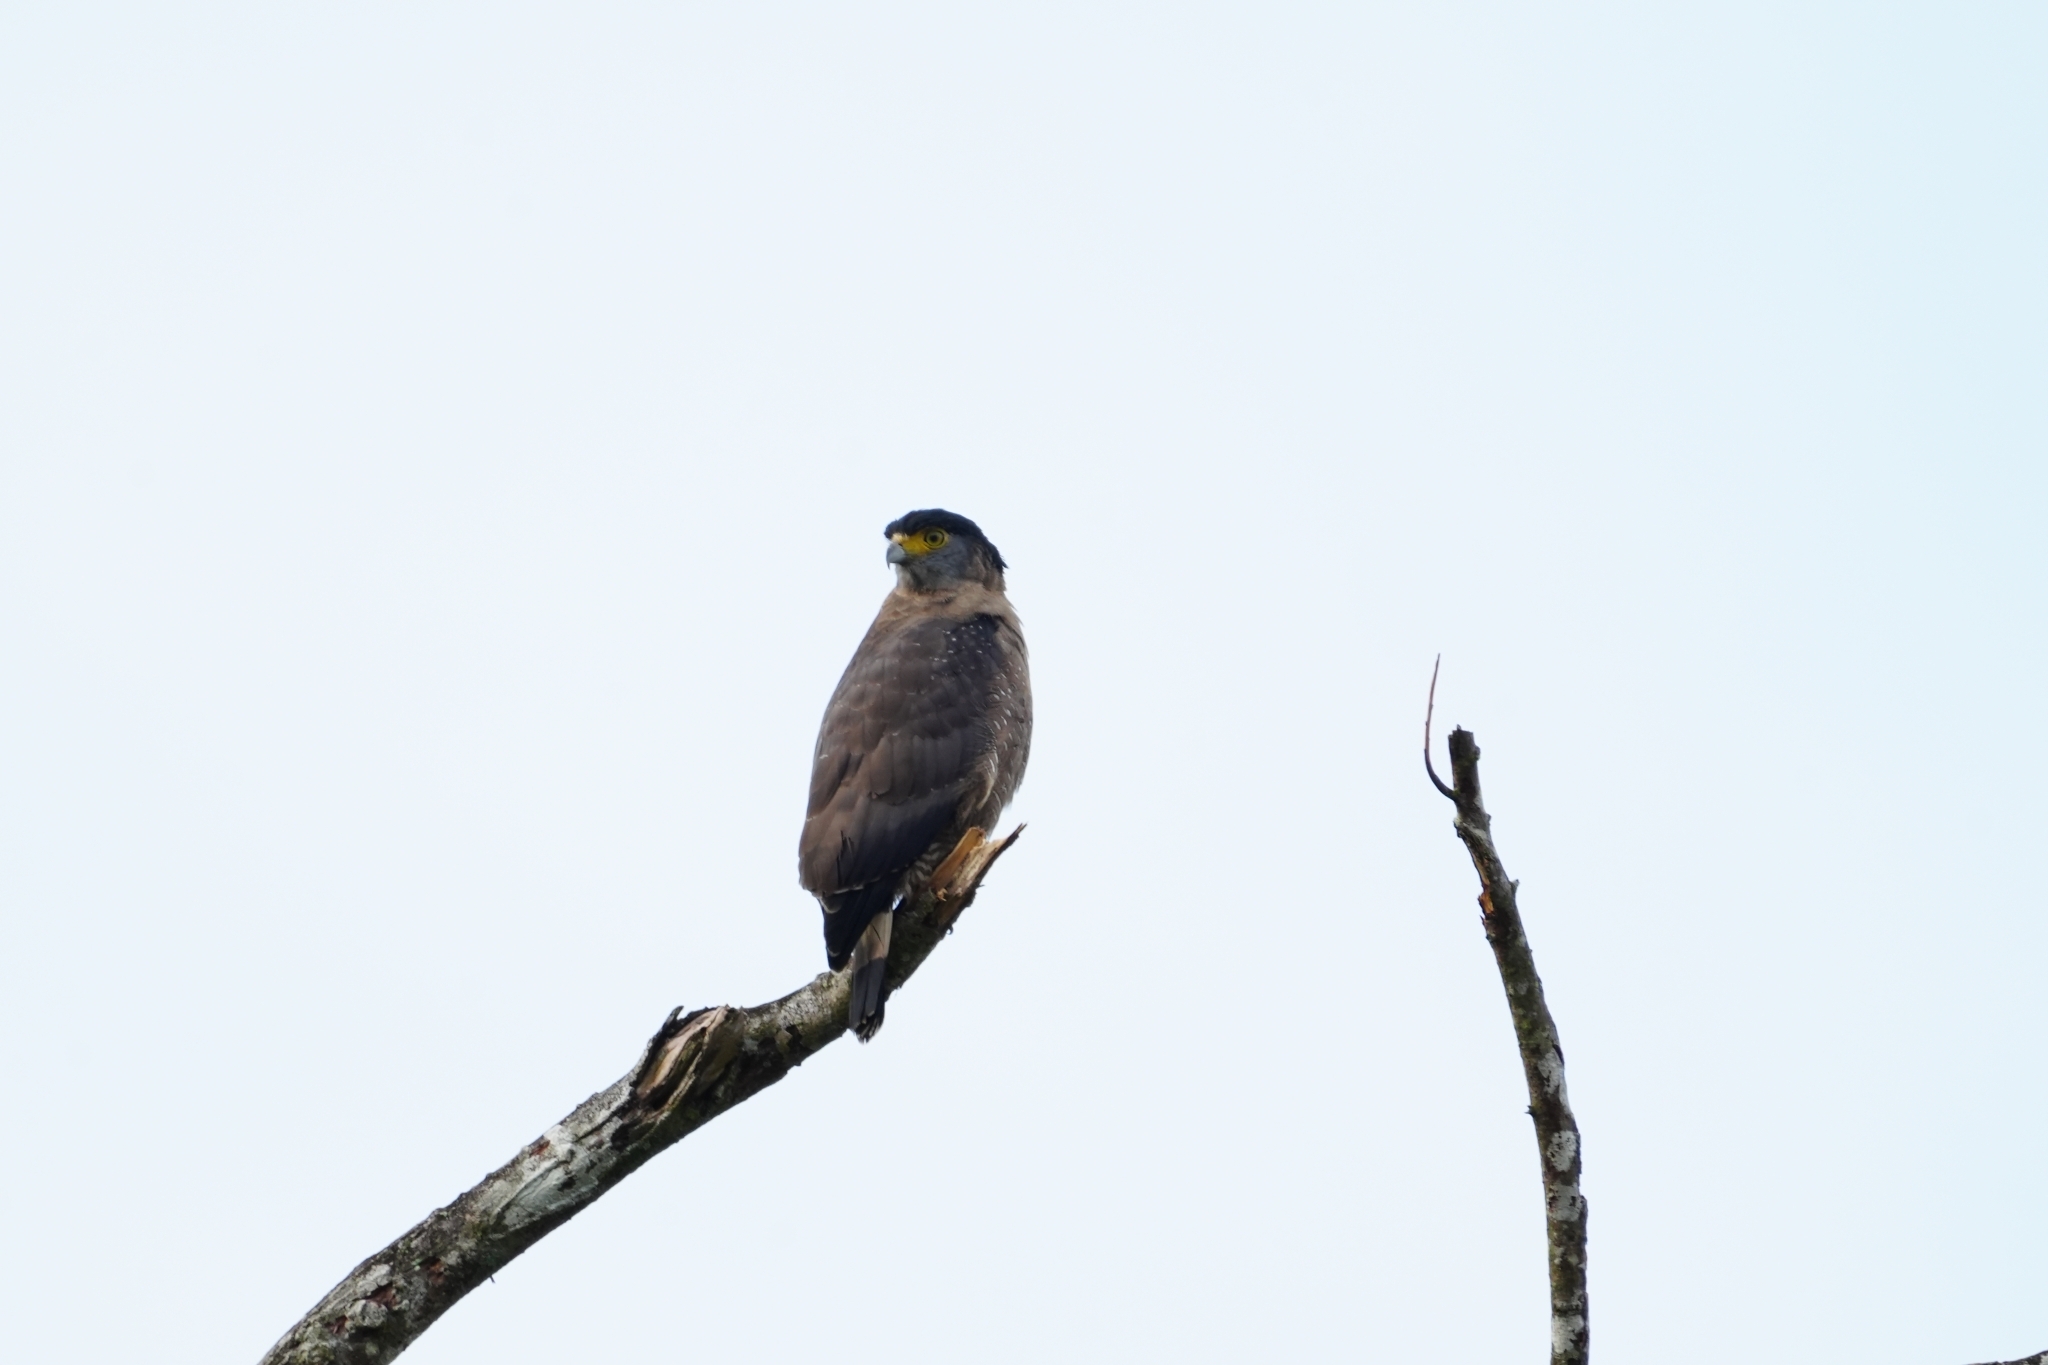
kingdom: Animalia
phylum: Chordata
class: Aves
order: Accipitriformes
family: Accipitridae
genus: Spilornis
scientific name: Spilornis cheela
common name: Crested serpent eagle
